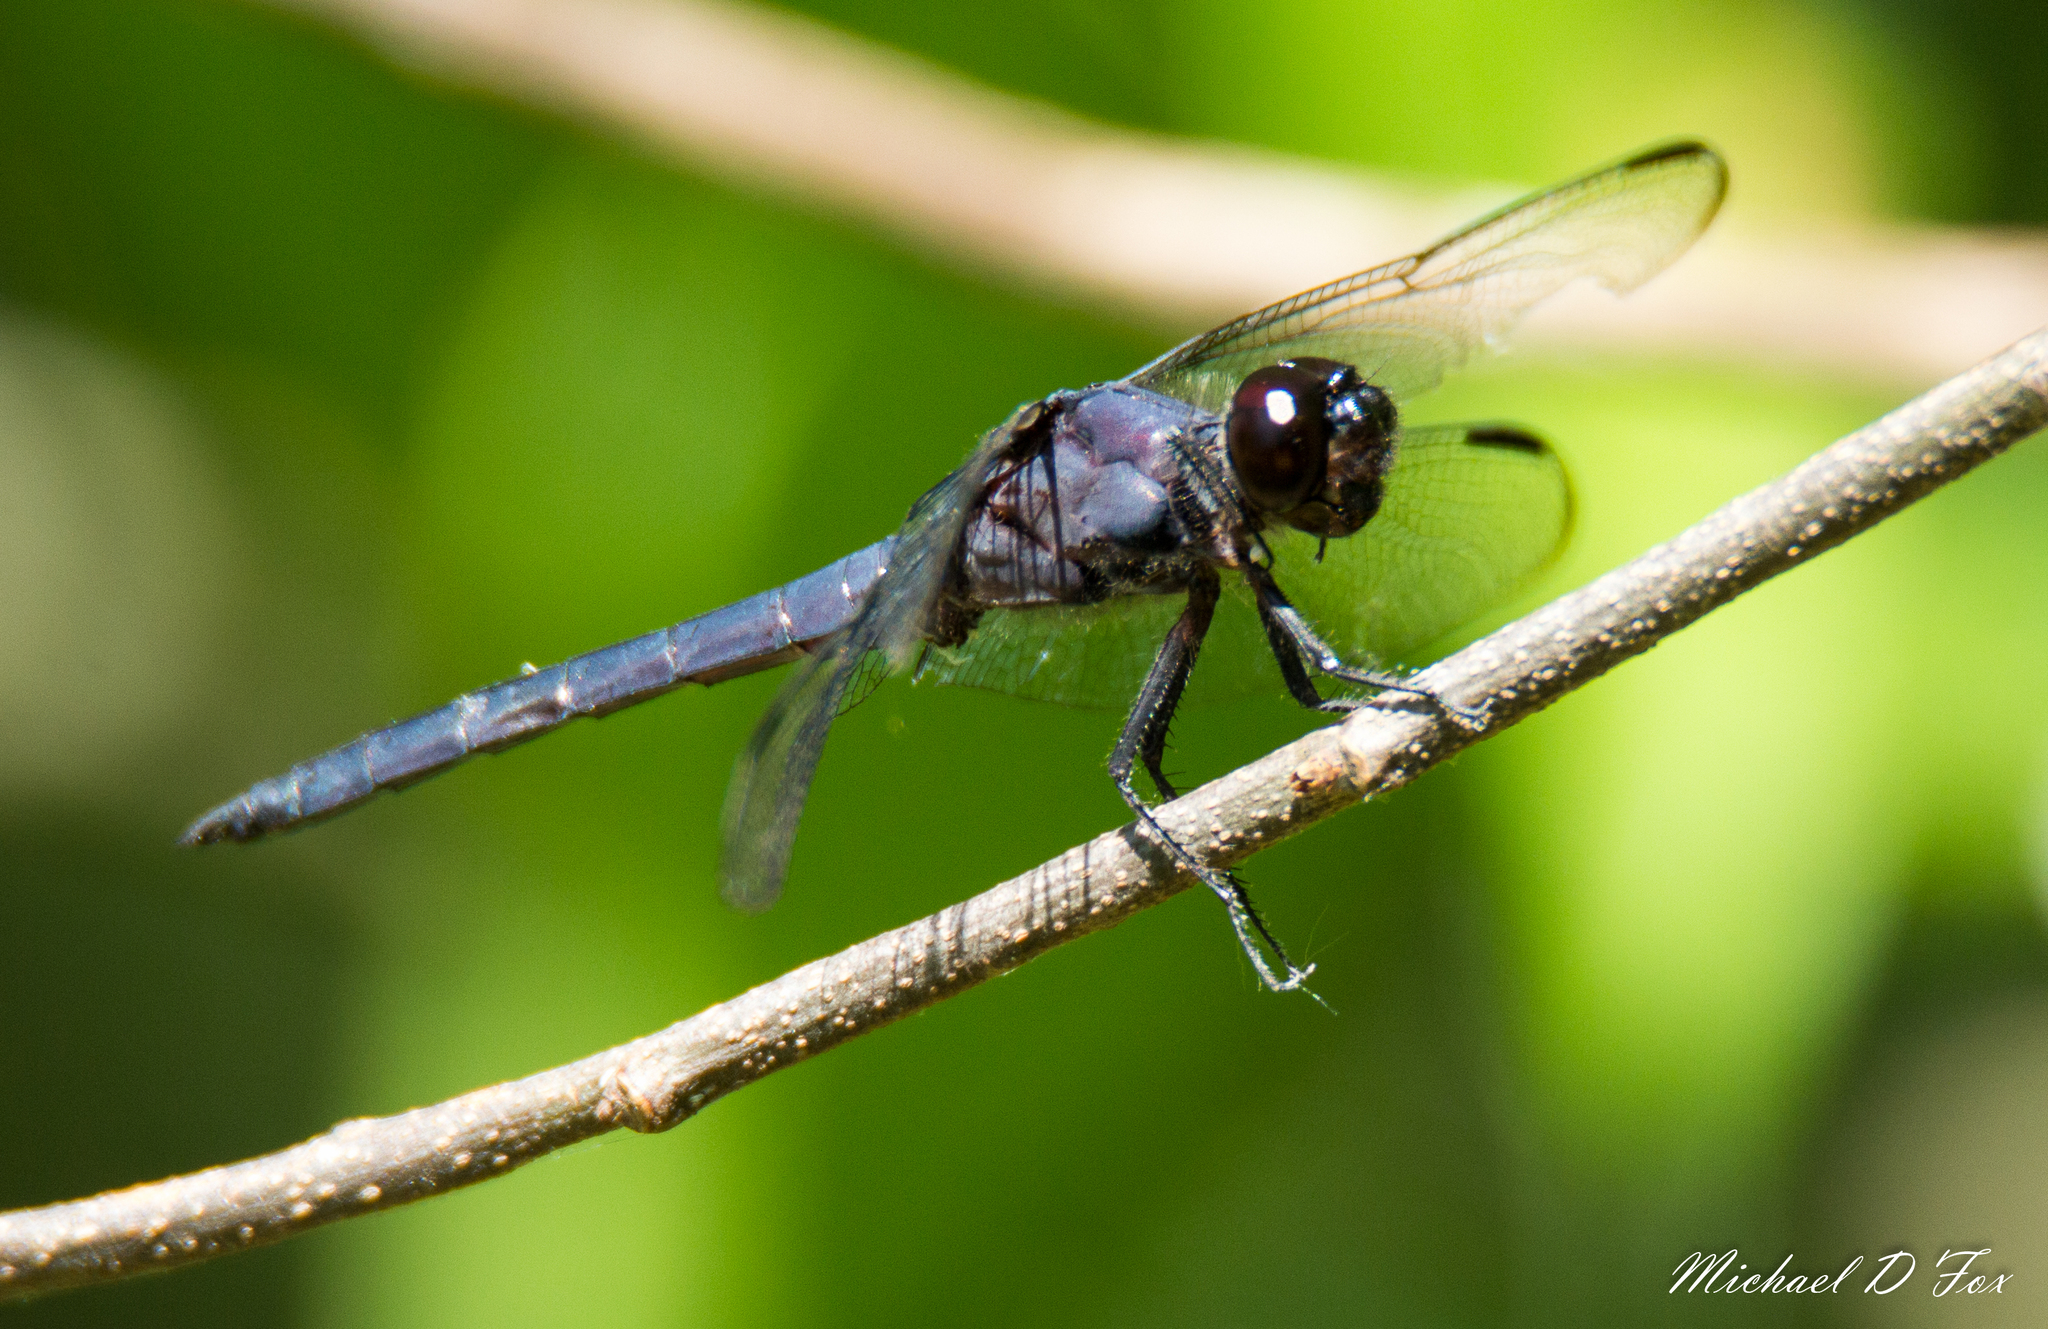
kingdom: Animalia
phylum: Arthropoda
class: Insecta
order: Odonata
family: Libellulidae
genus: Libellula
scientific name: Libellula incesta
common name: Slaty skimmer
